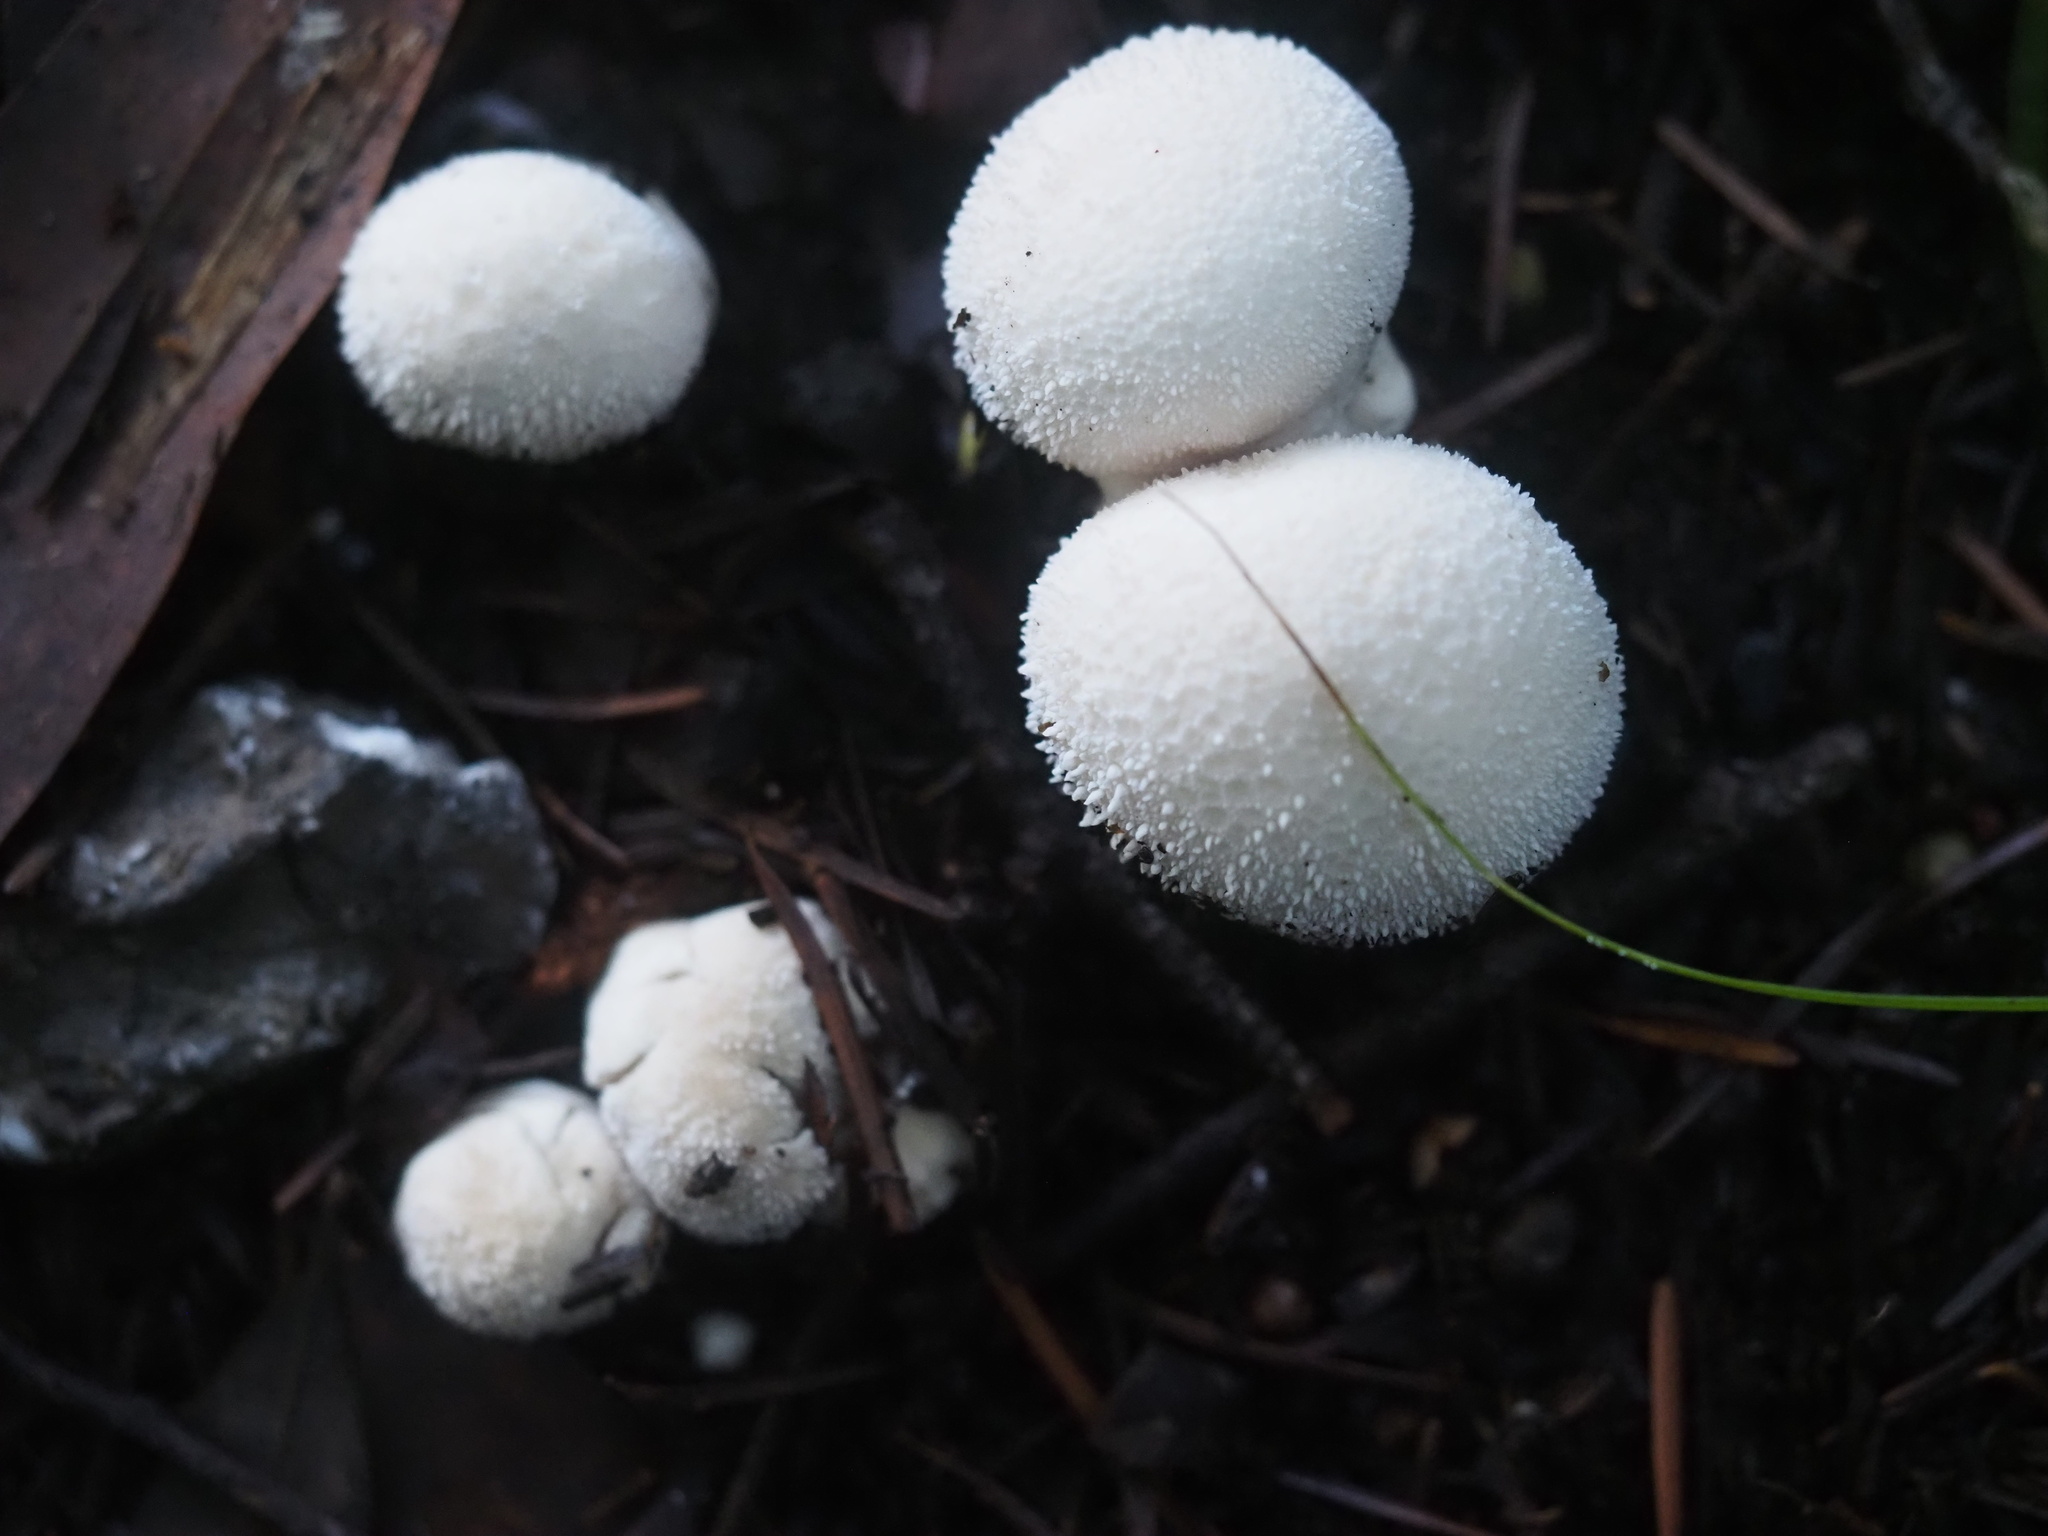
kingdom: Fungi
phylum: Basidiomycota
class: Agaricomycetes
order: Agaricales
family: Lycoperdaceae
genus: Lycoperdon
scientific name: Lycoperdon perlatum
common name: Common puffball
